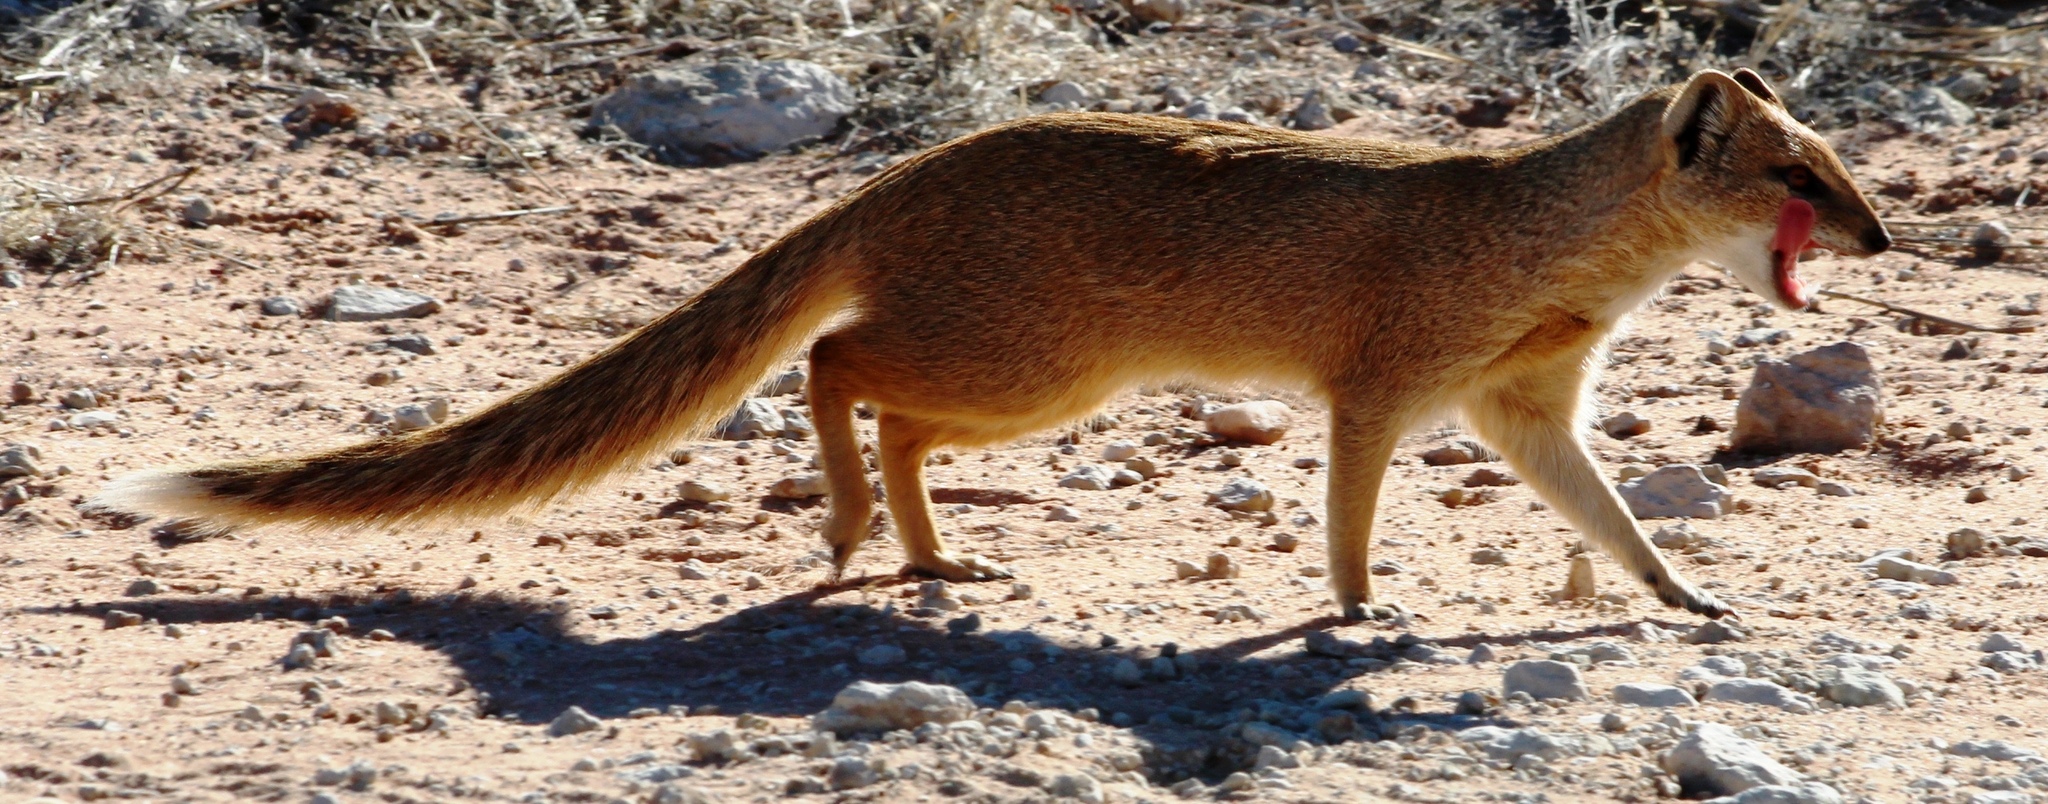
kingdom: Animalia
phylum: Chordata
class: Mammalia
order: Carnivora
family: Herpestidae
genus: Cynictis
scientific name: Cynictis penicillata
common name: Yellow mongoose
